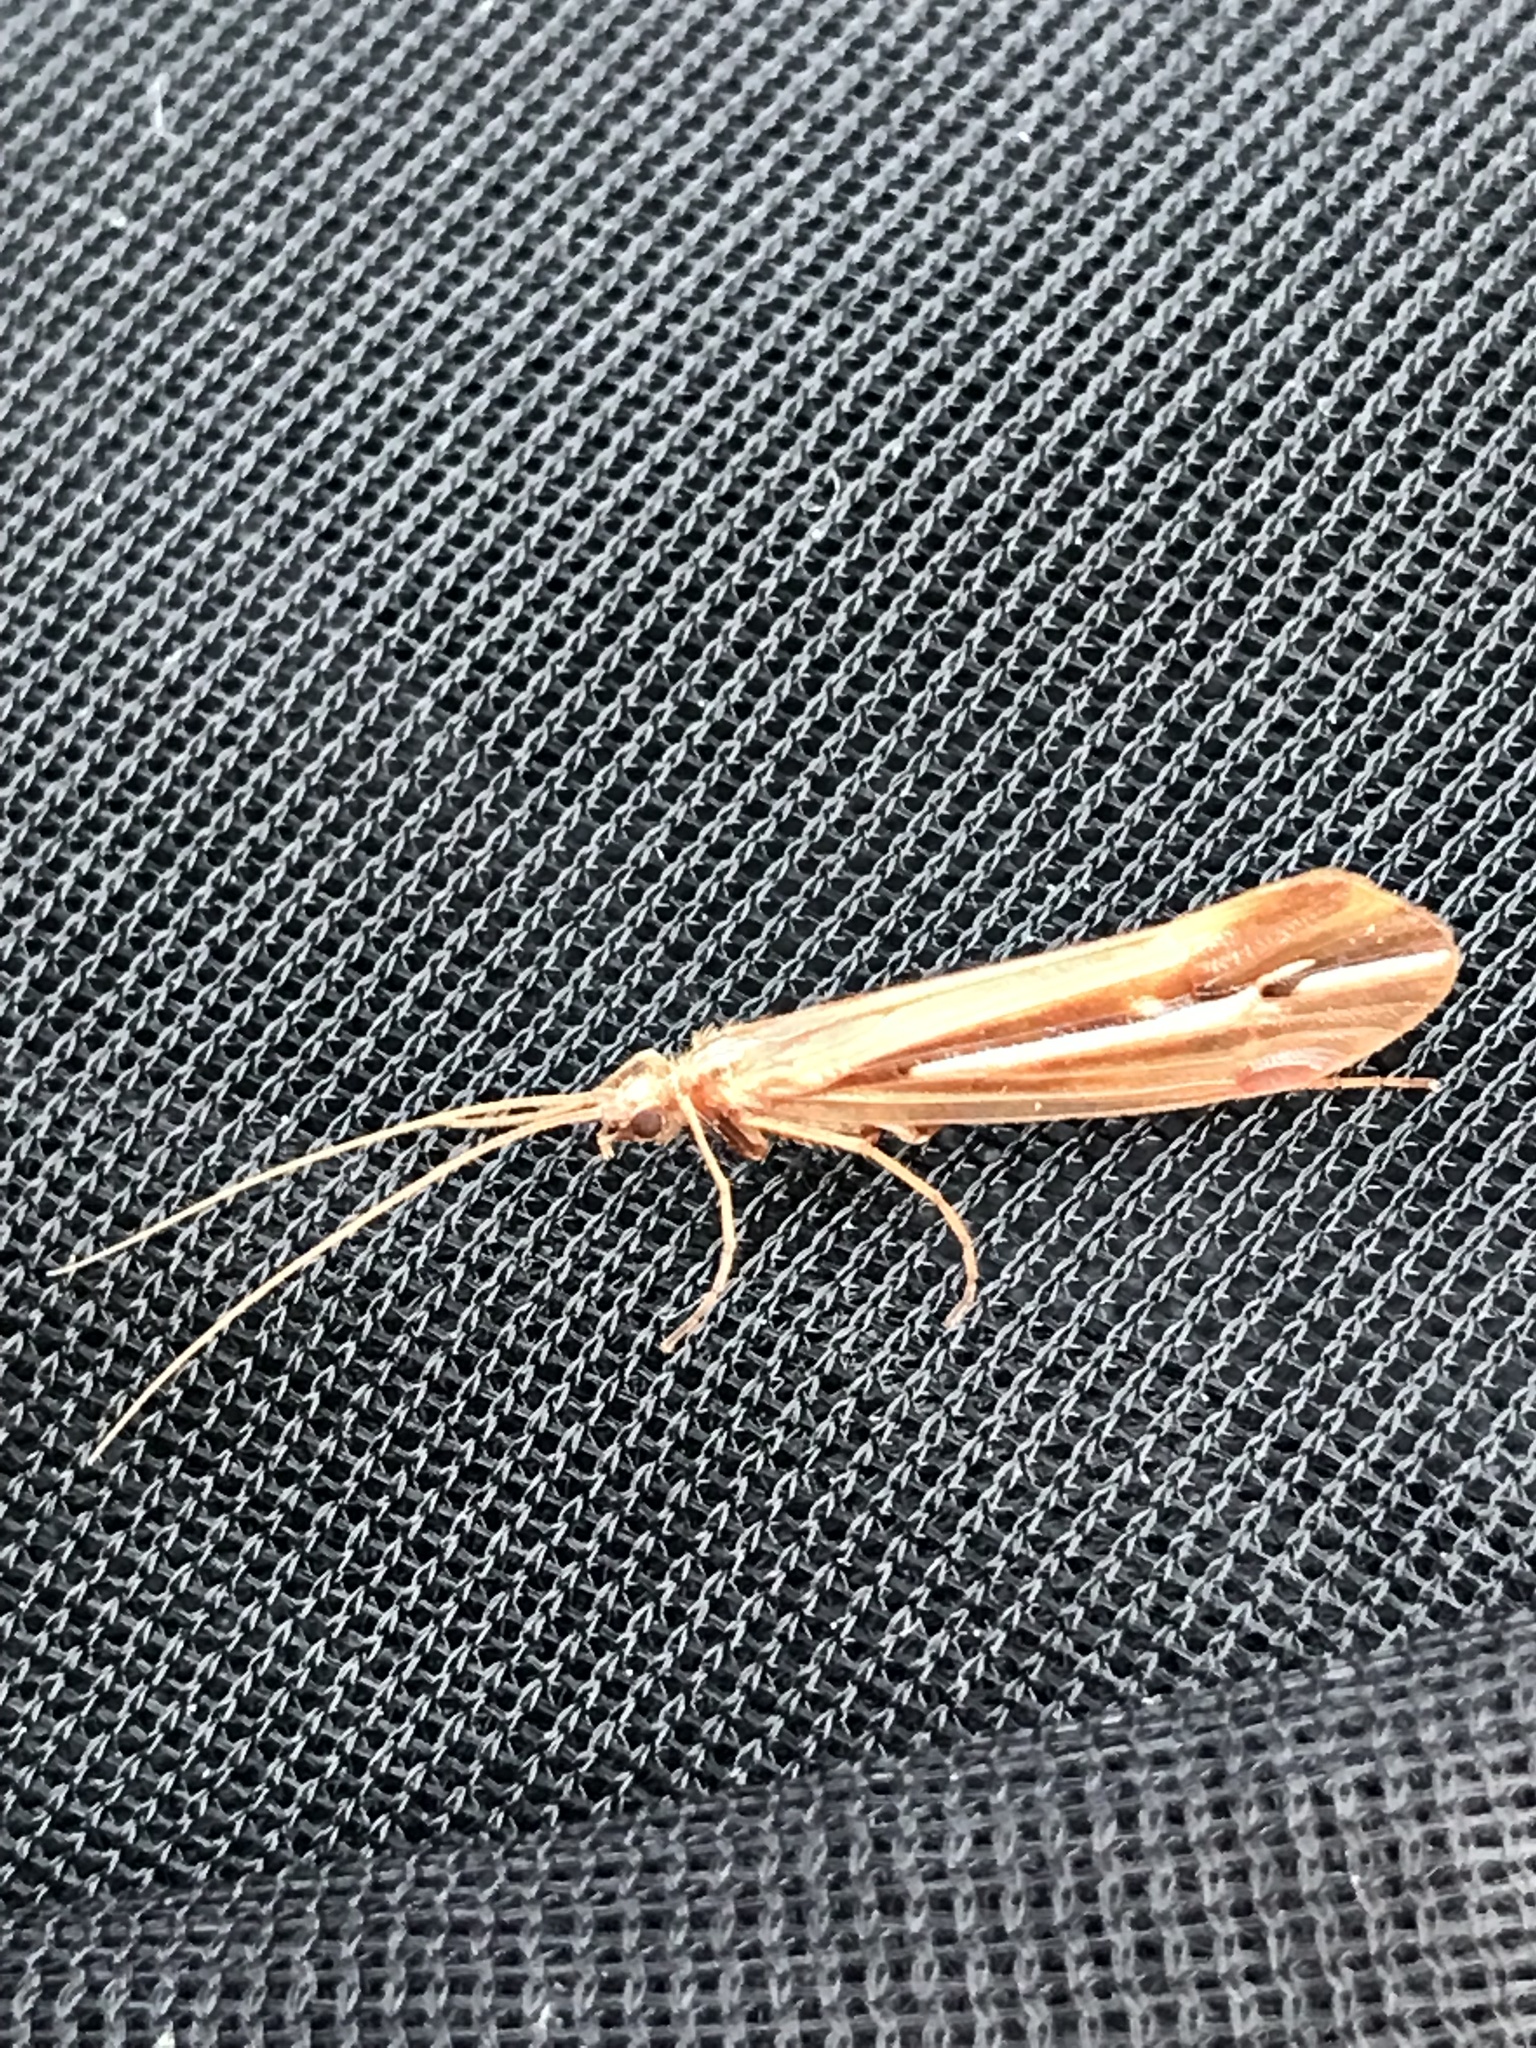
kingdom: Animalia
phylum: Arthropoda
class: Insecta
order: Trichoptera
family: Limnephilidae
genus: Psychoglypha
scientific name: Psychoglypha subborealis
